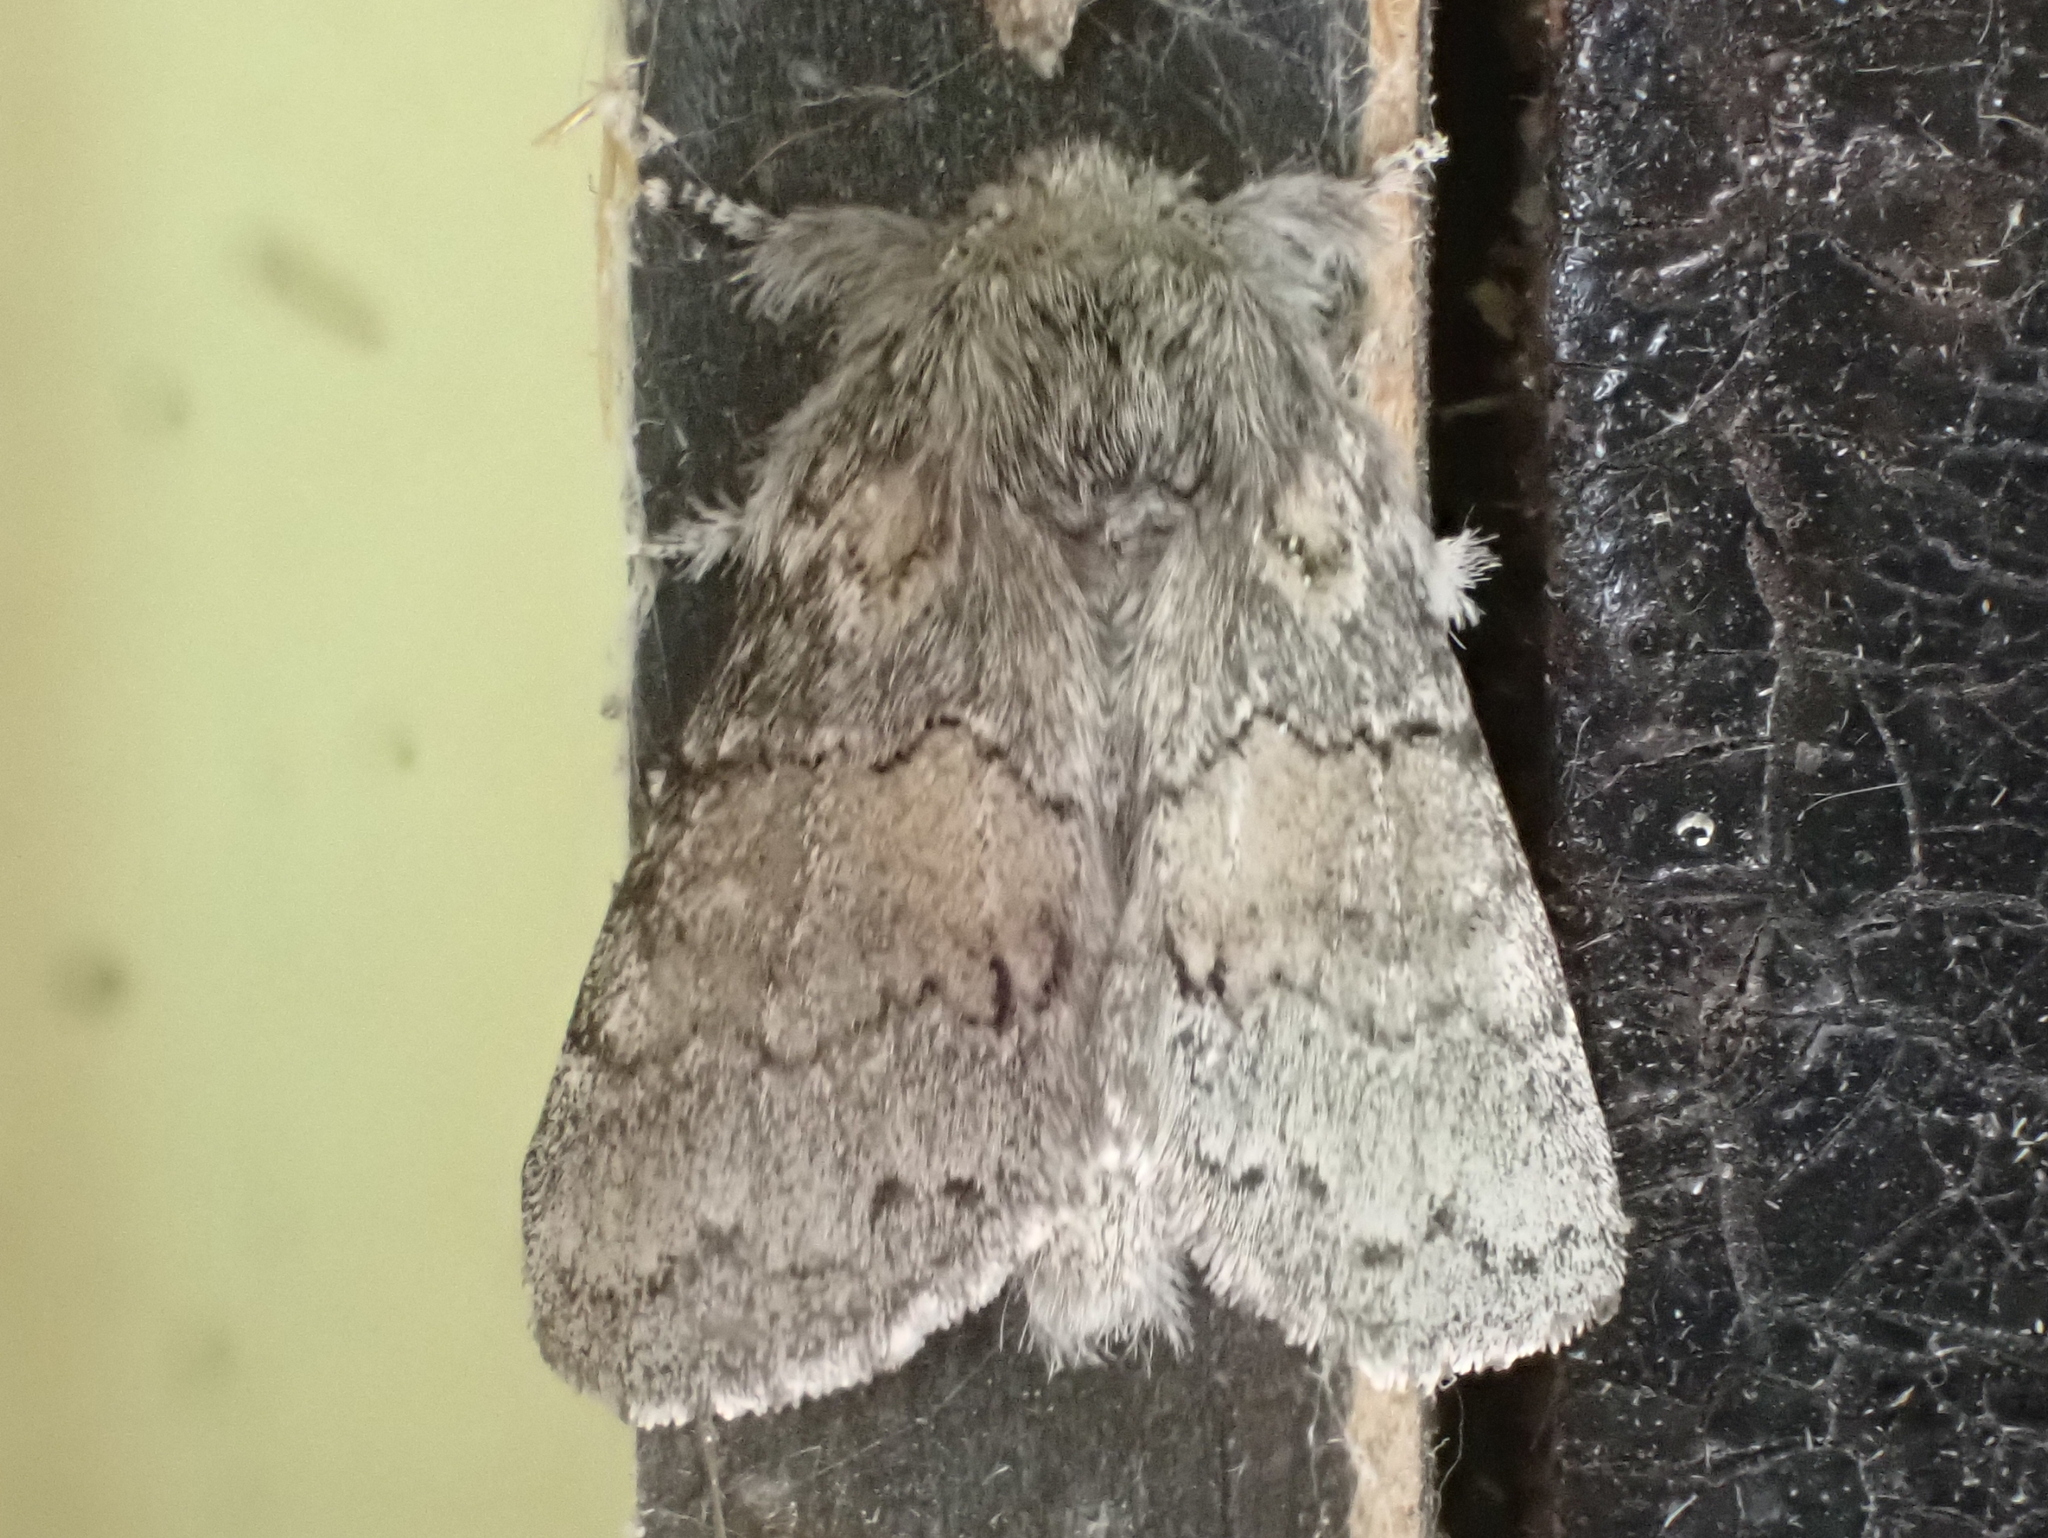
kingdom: Animalia
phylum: Arthropoda
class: Insecta
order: Lepidoptera
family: Notodontidae
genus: Gluphisia
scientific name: Gluphisia septentrionis
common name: Common gluphisia
